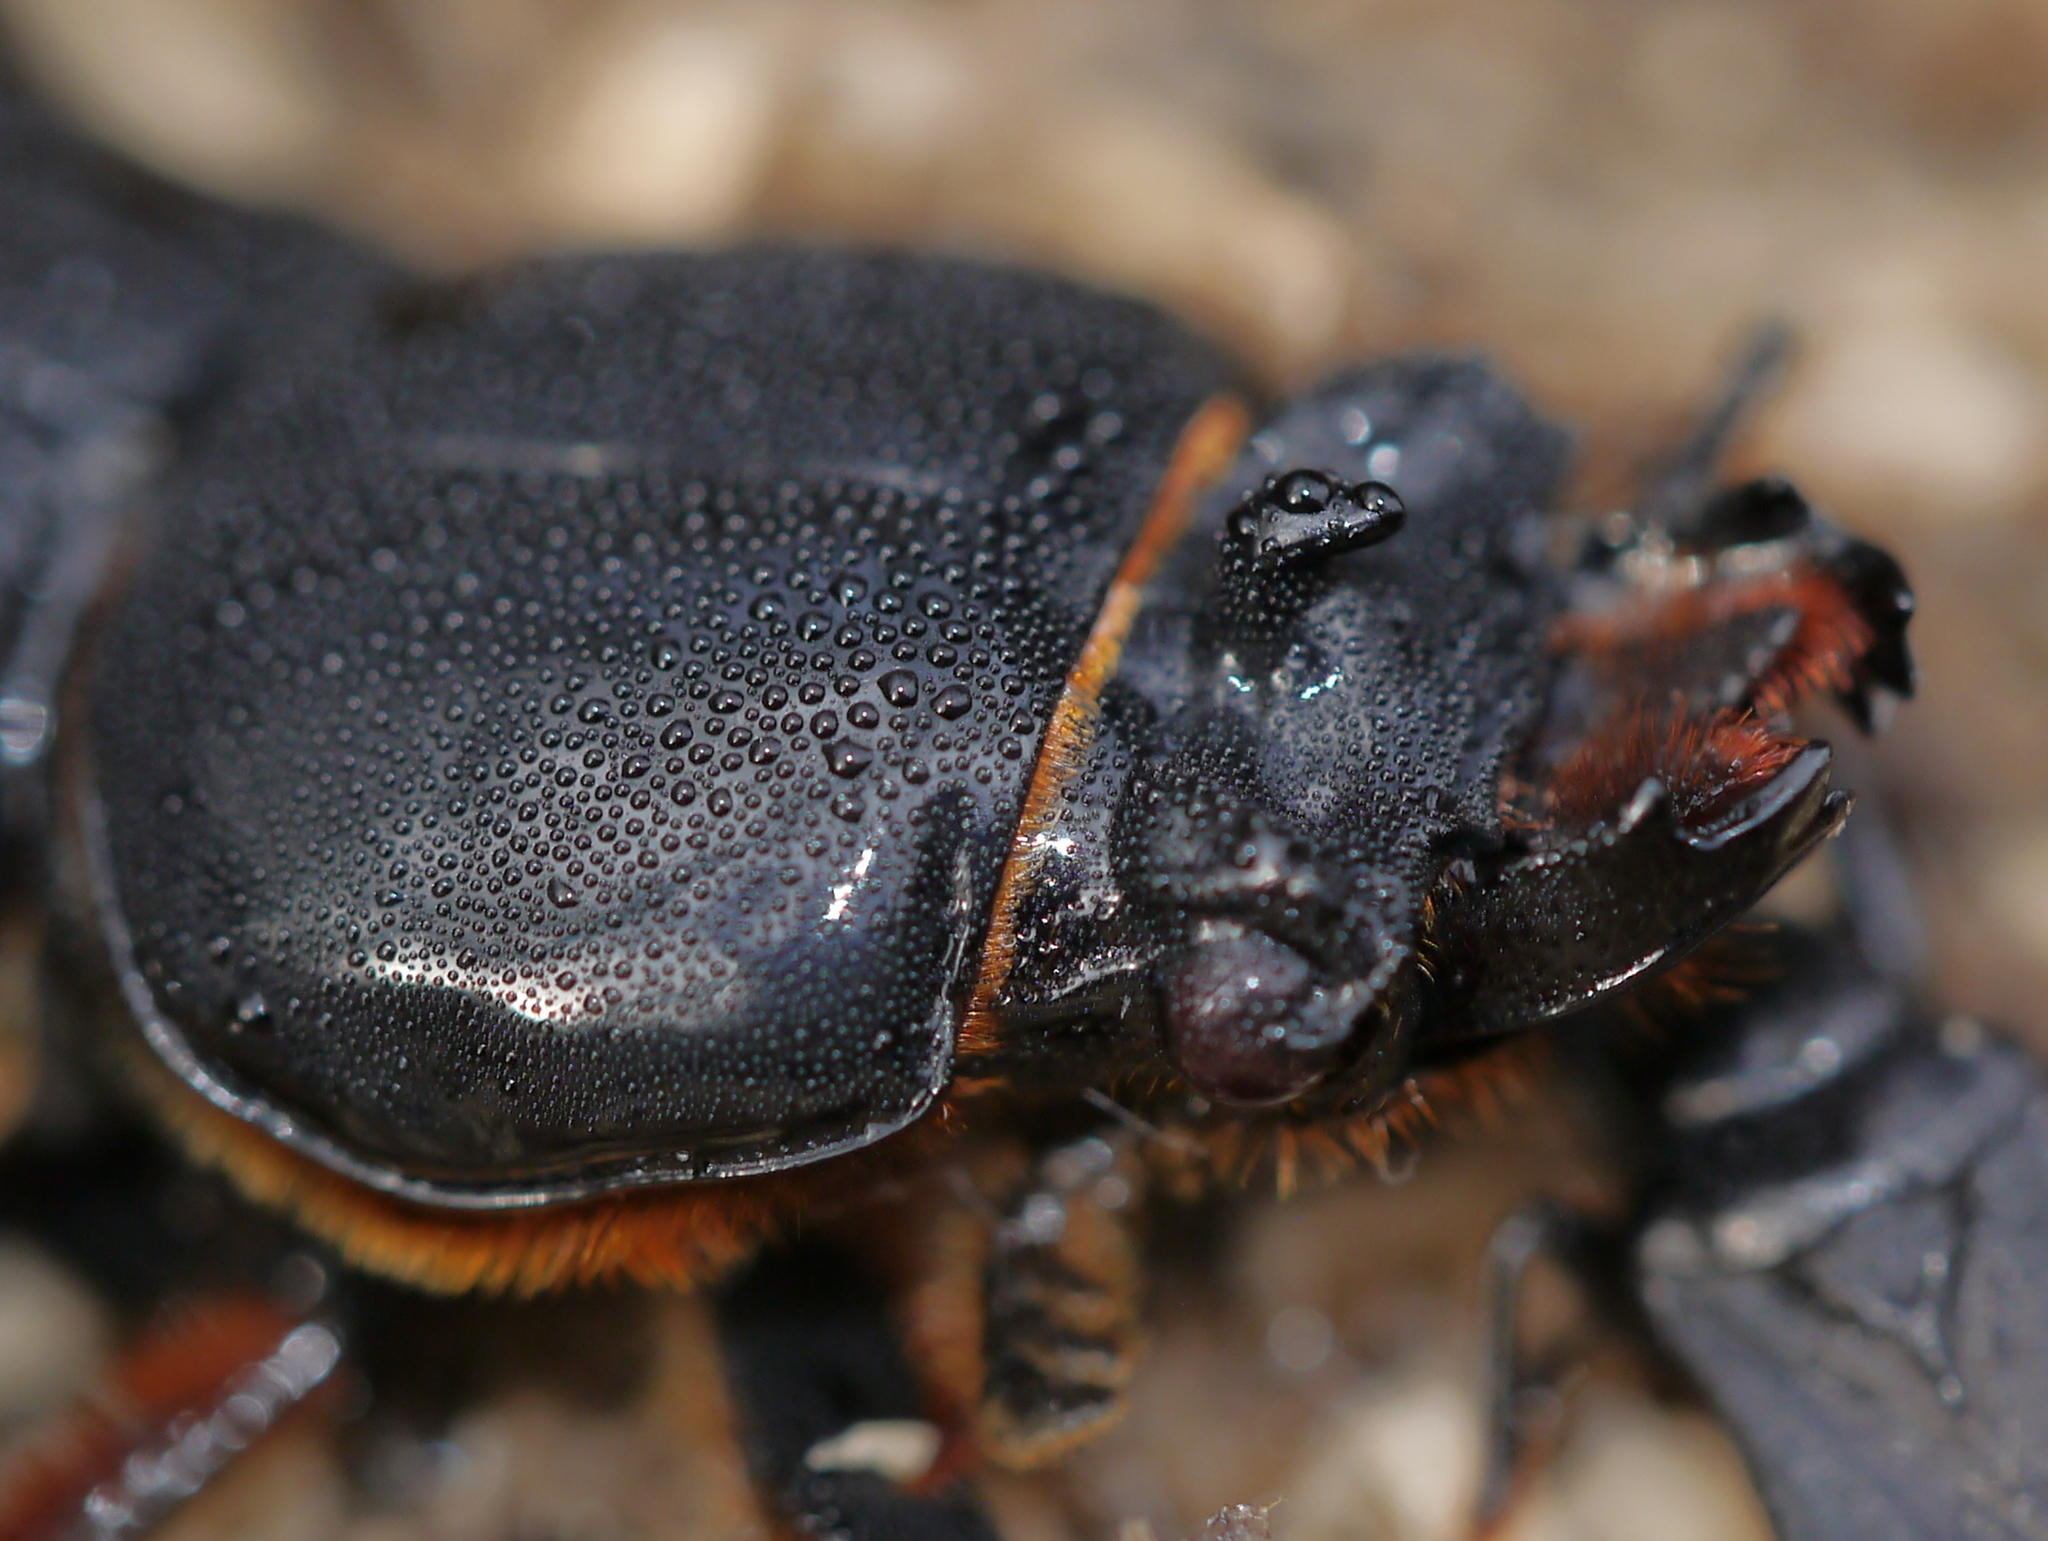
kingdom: Animalia
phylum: Arthropoda
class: Insecta
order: Coleoptera
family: Passalidae
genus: Odontotaenius
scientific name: Odontotaenius disjunctus
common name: Patent leather beetle
